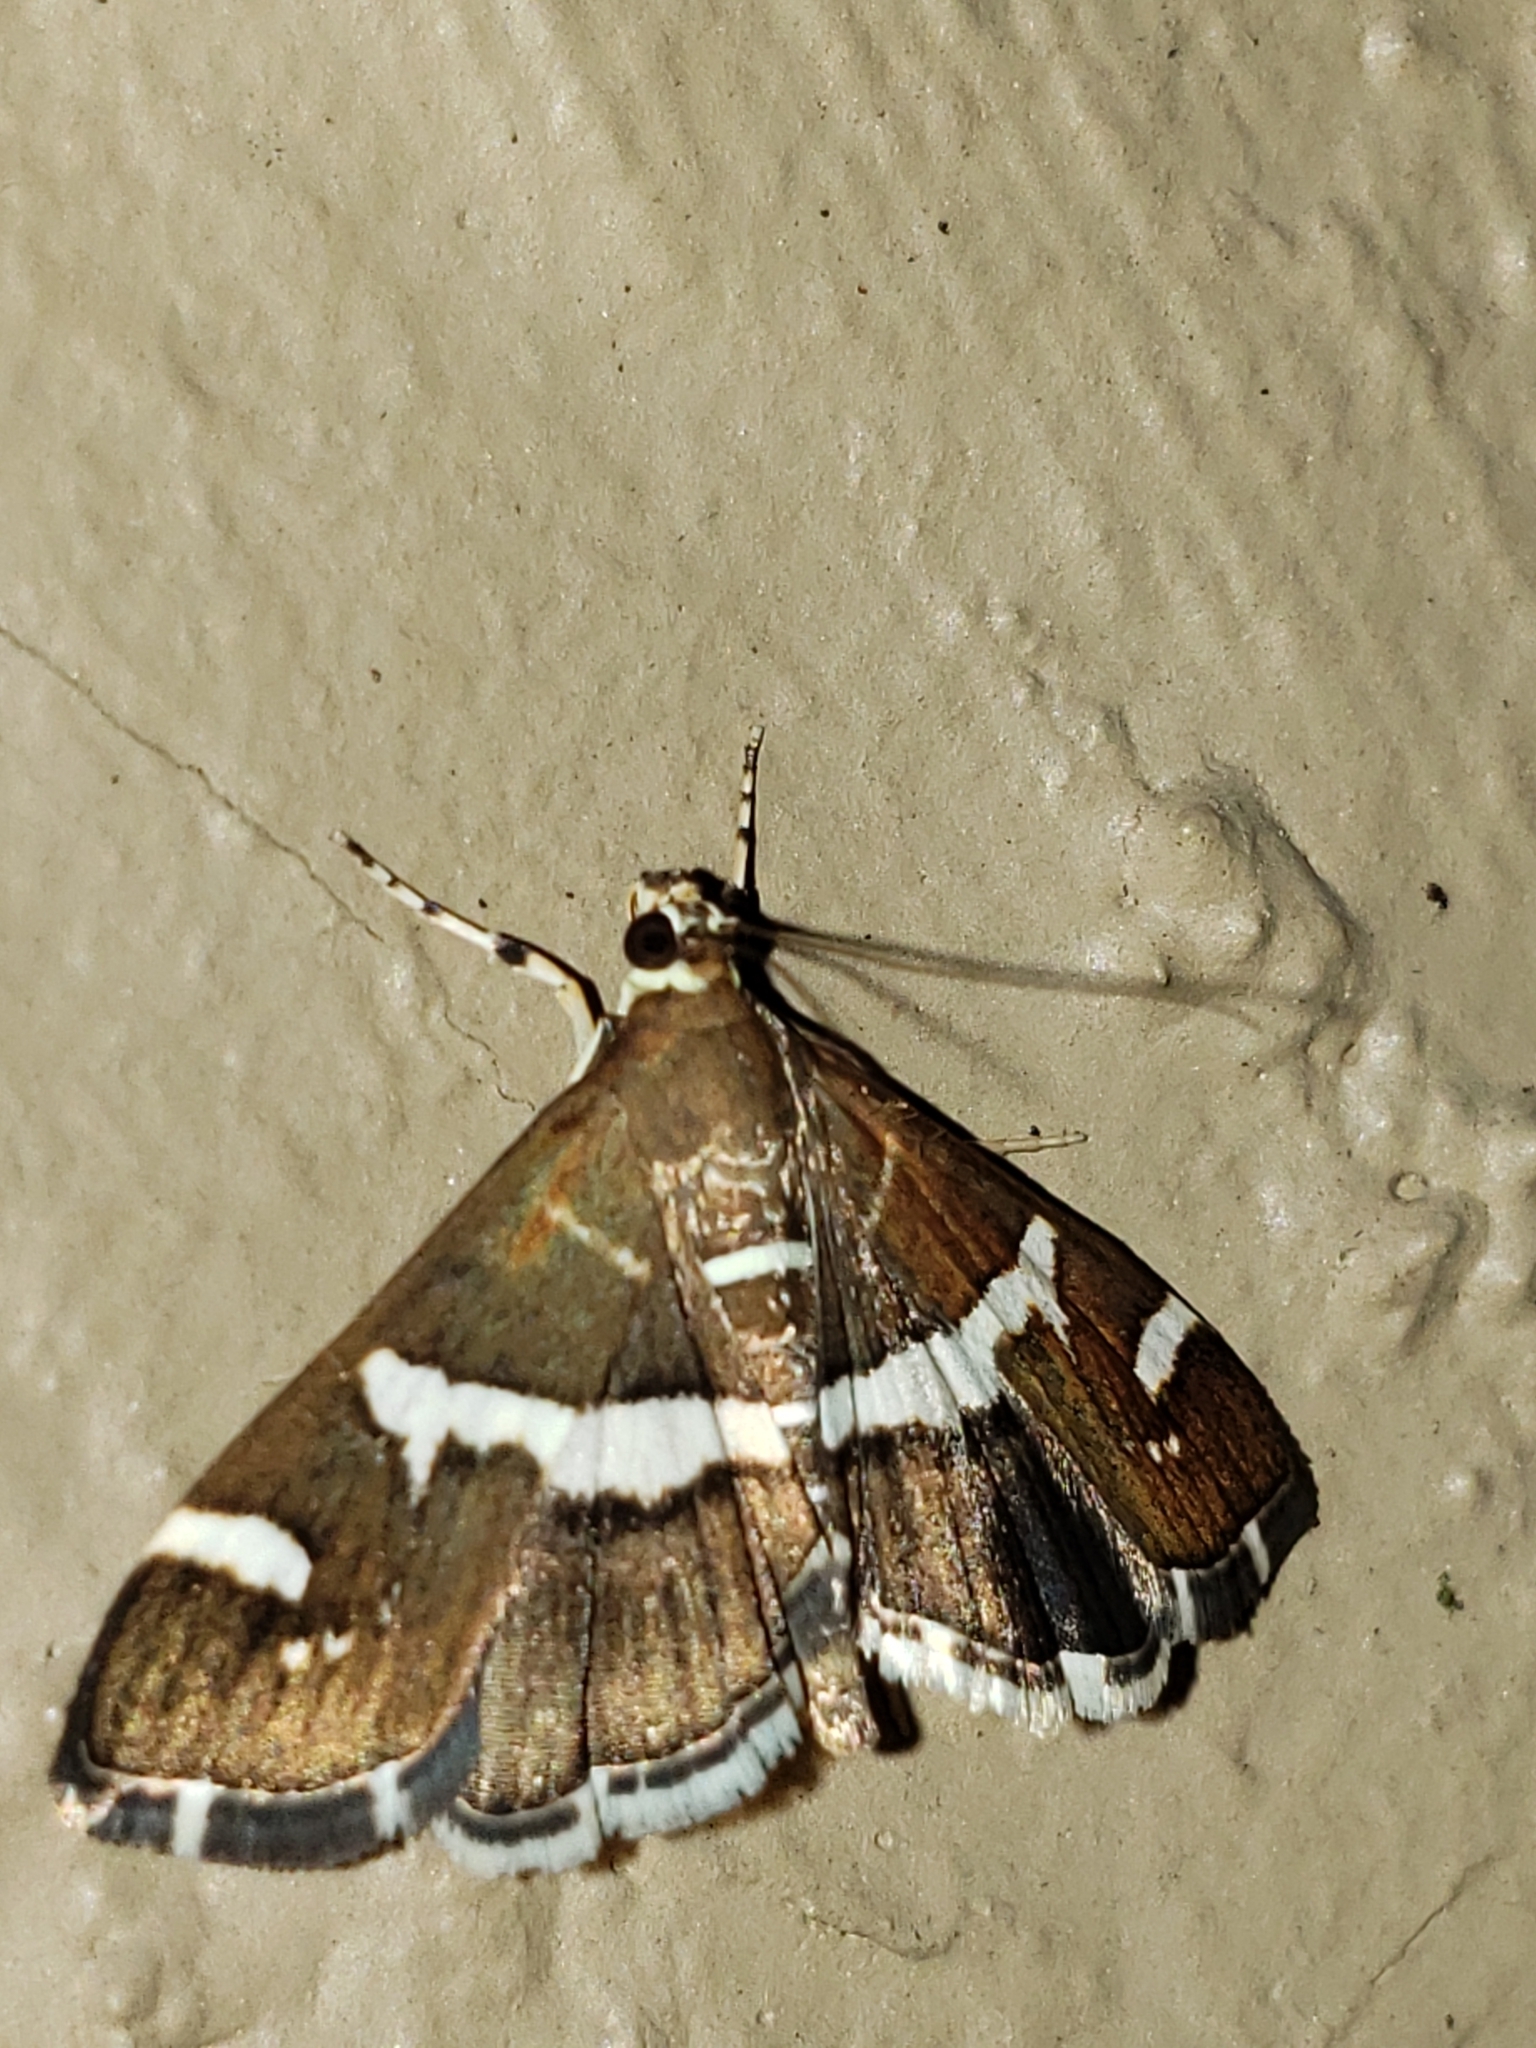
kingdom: Animalia
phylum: Arthropoda
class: Insecta
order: Lepidoptera
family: Crambidae
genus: Spoladea
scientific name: Spoladea recurvalis
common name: Beet webworm moth
